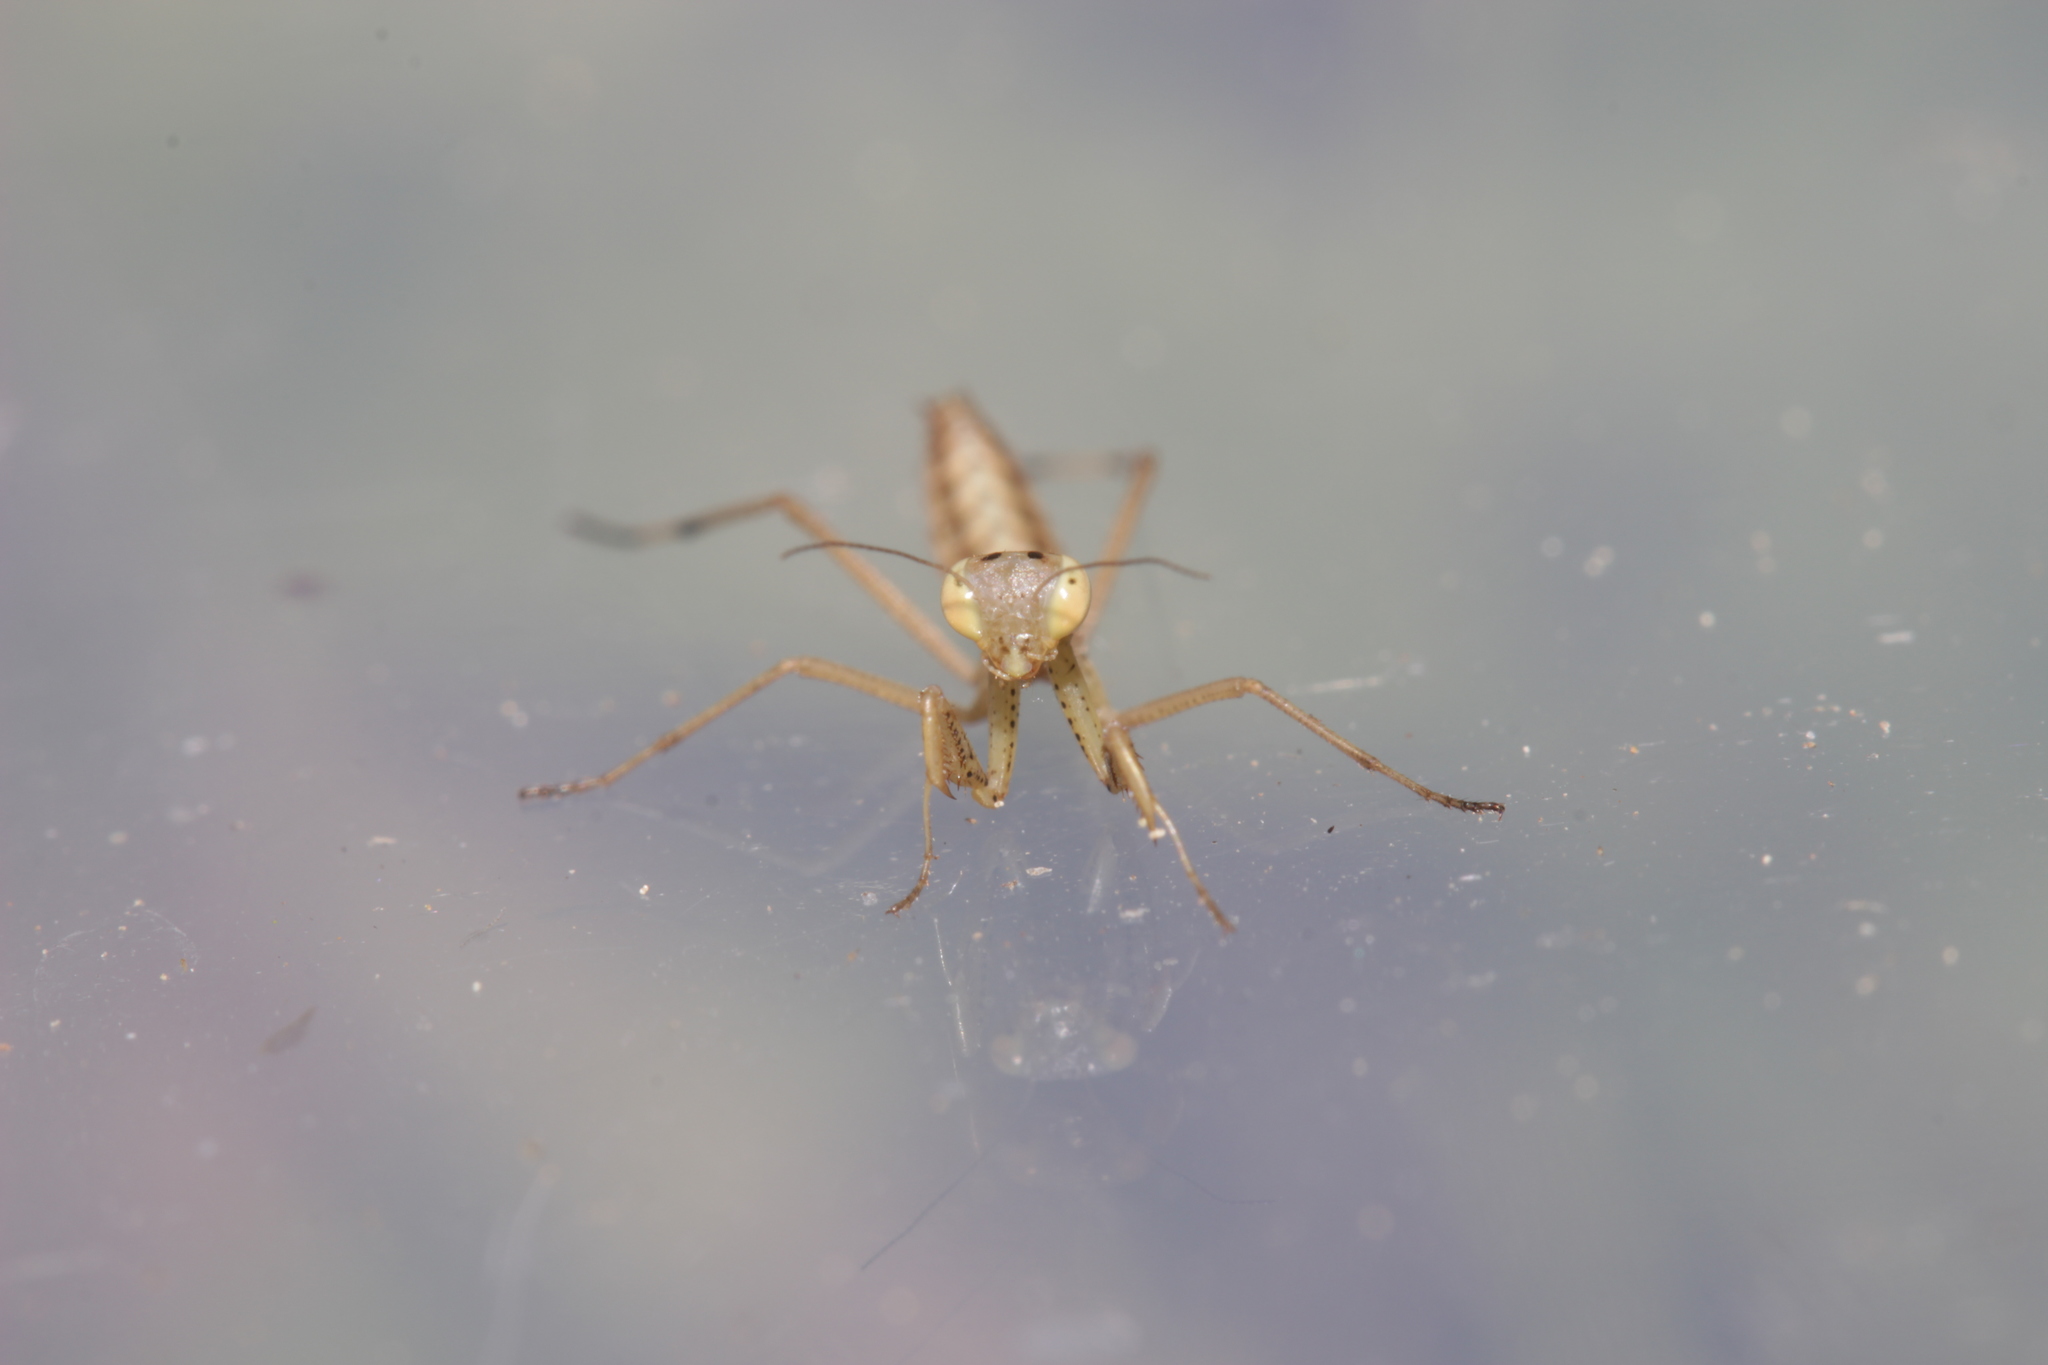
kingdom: Animalia
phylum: Arthropoda
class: Insecta
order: Mantodea
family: Mantidae
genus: Mantis
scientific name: Mantis religiosa
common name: Praying mantis
